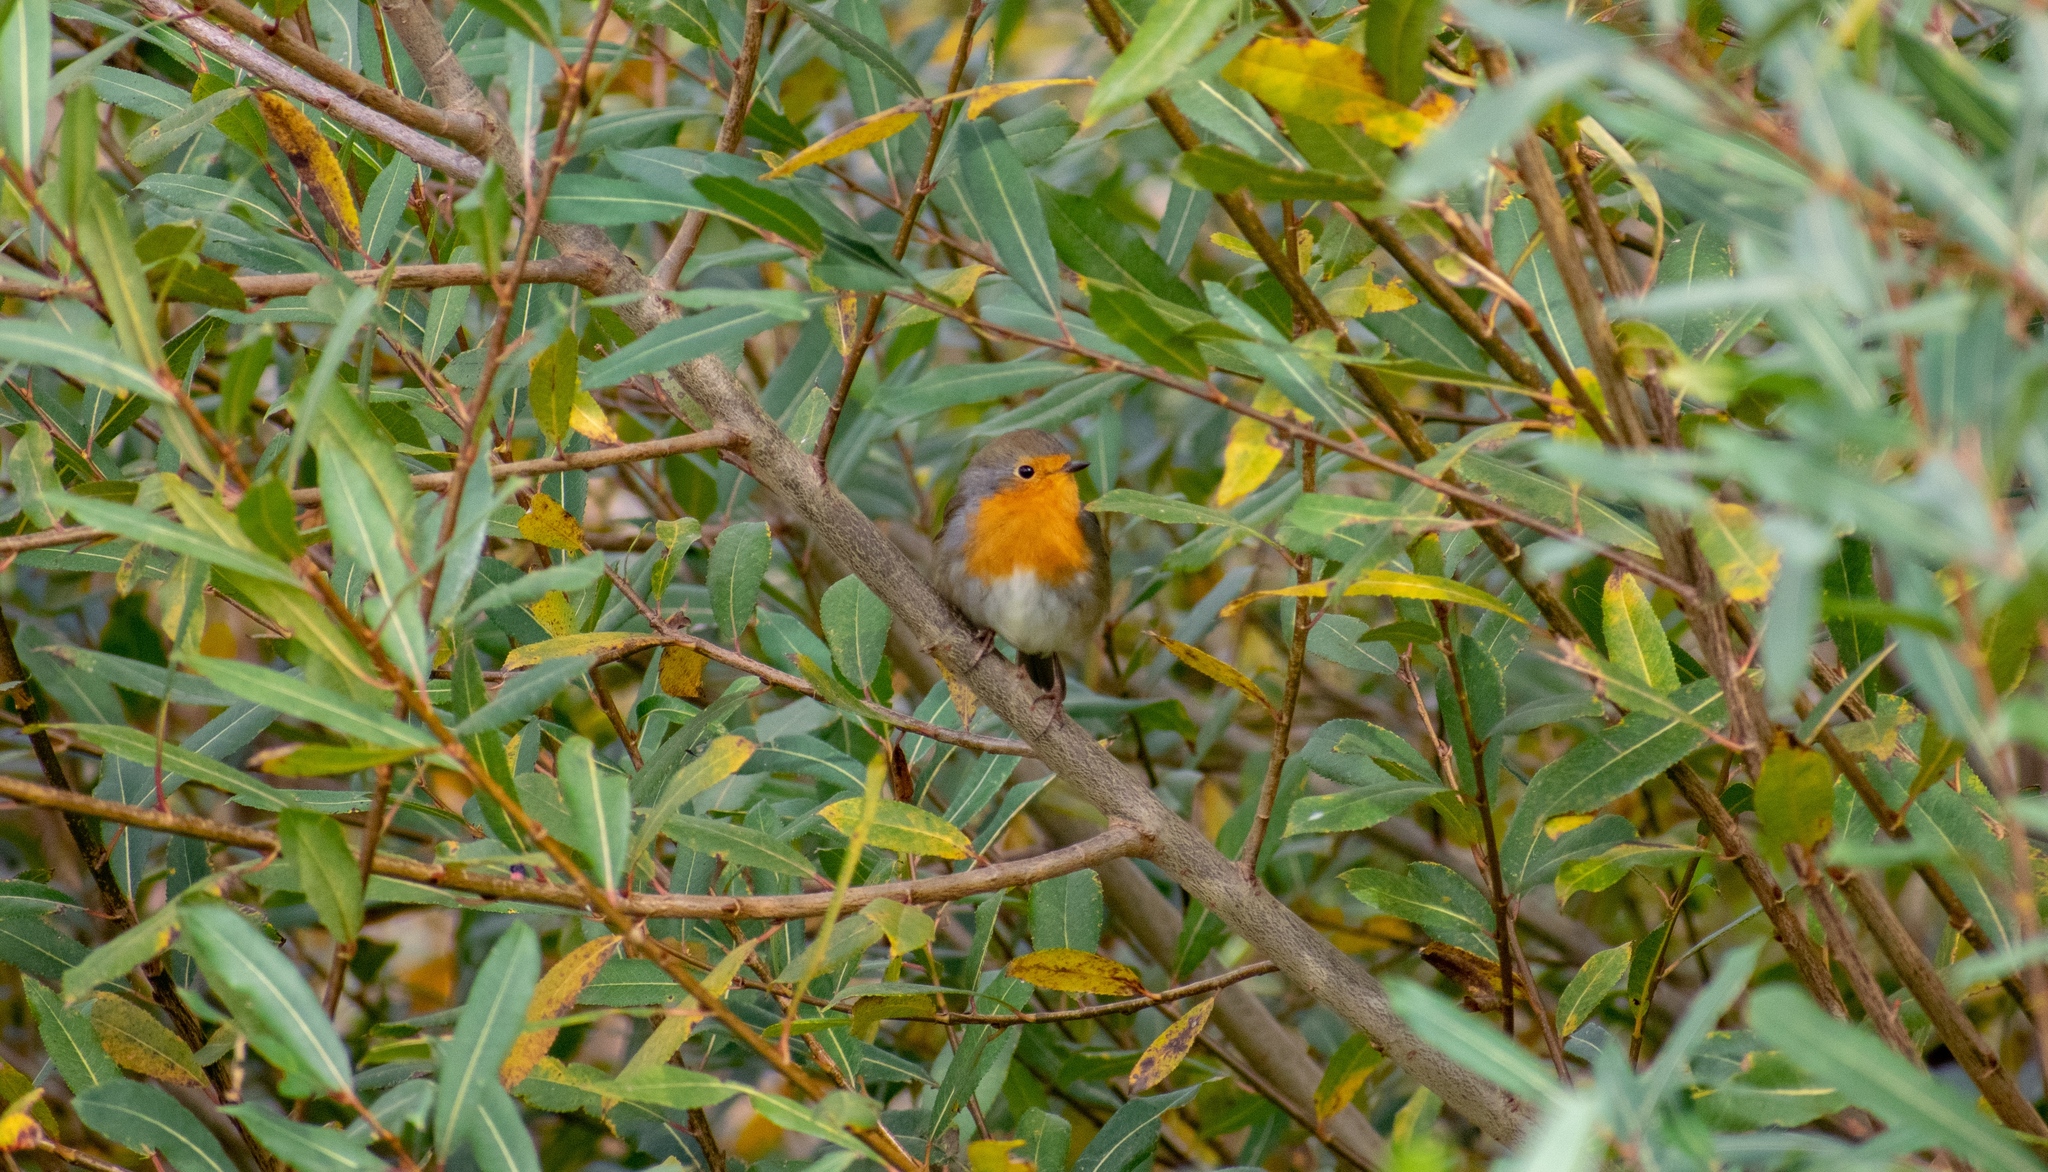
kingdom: Animalia
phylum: Chordata
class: Aves
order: Passeriformes
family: Muscicapidae
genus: Erithacus
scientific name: Erithacus rubecula
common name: European robin
